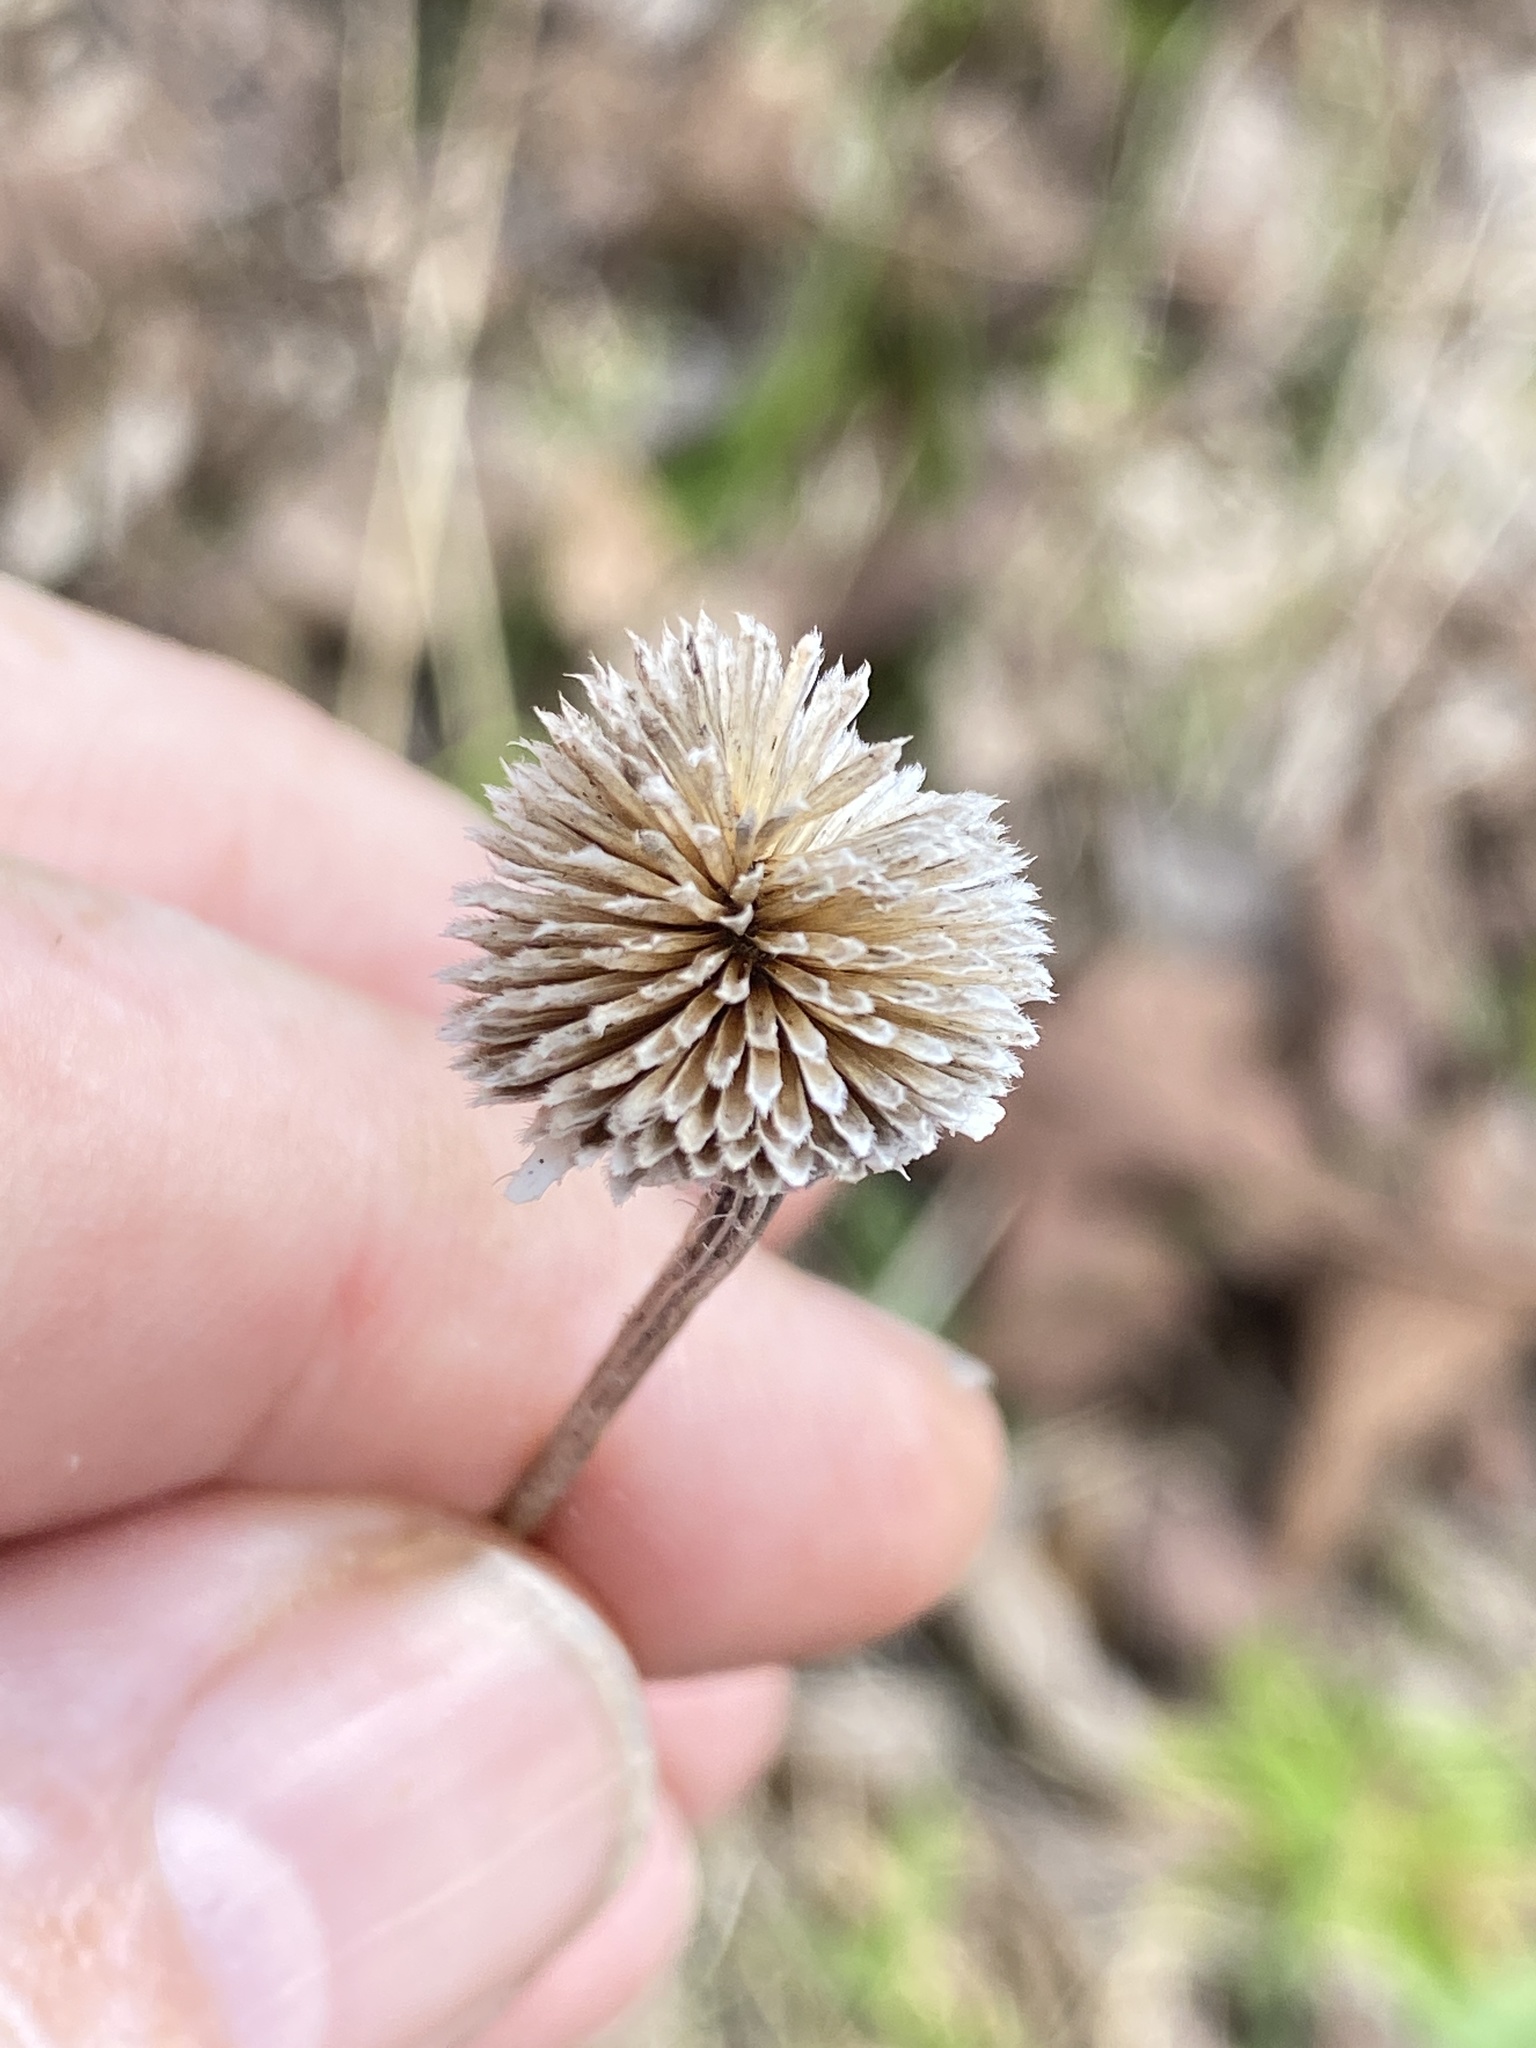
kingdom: Plantae
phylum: Tracheophyta
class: Magnoliopsida
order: Asterales
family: Asteraceae
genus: Rudbeckia
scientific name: Rudbeckia hirta
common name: Black-eyed-susan
